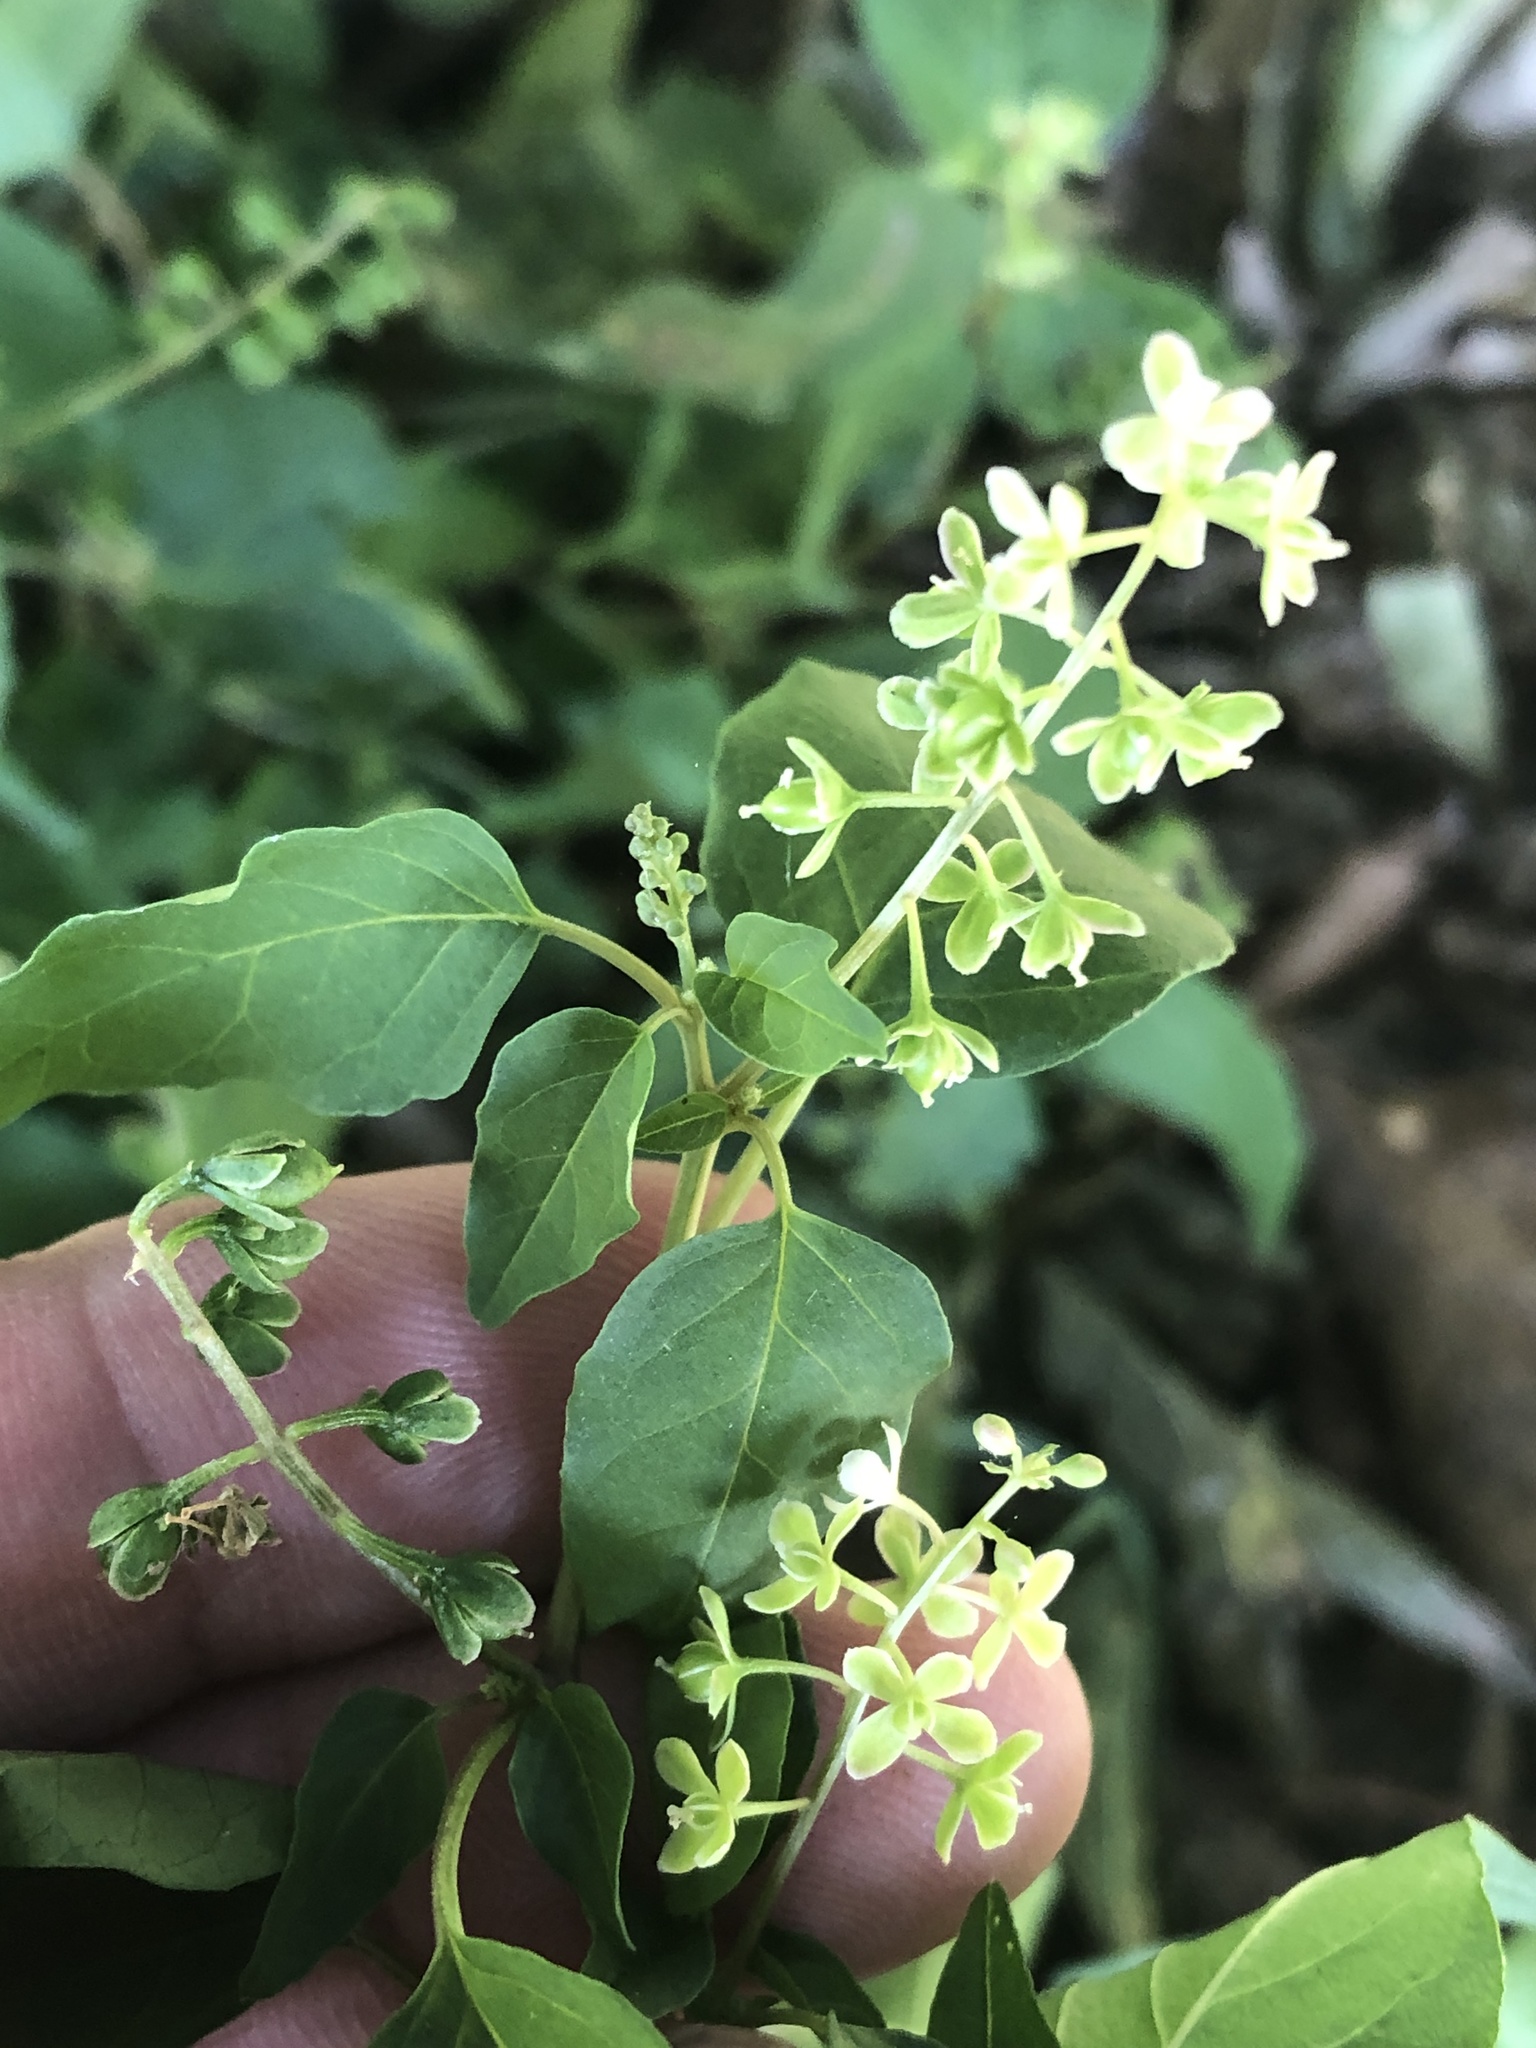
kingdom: Plantae
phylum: Tracheophyta
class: Magnoliopsida
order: Caryophyllales
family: Phytolaccaceae
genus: Rivina
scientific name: Rivina humilis
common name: Rougeplant
